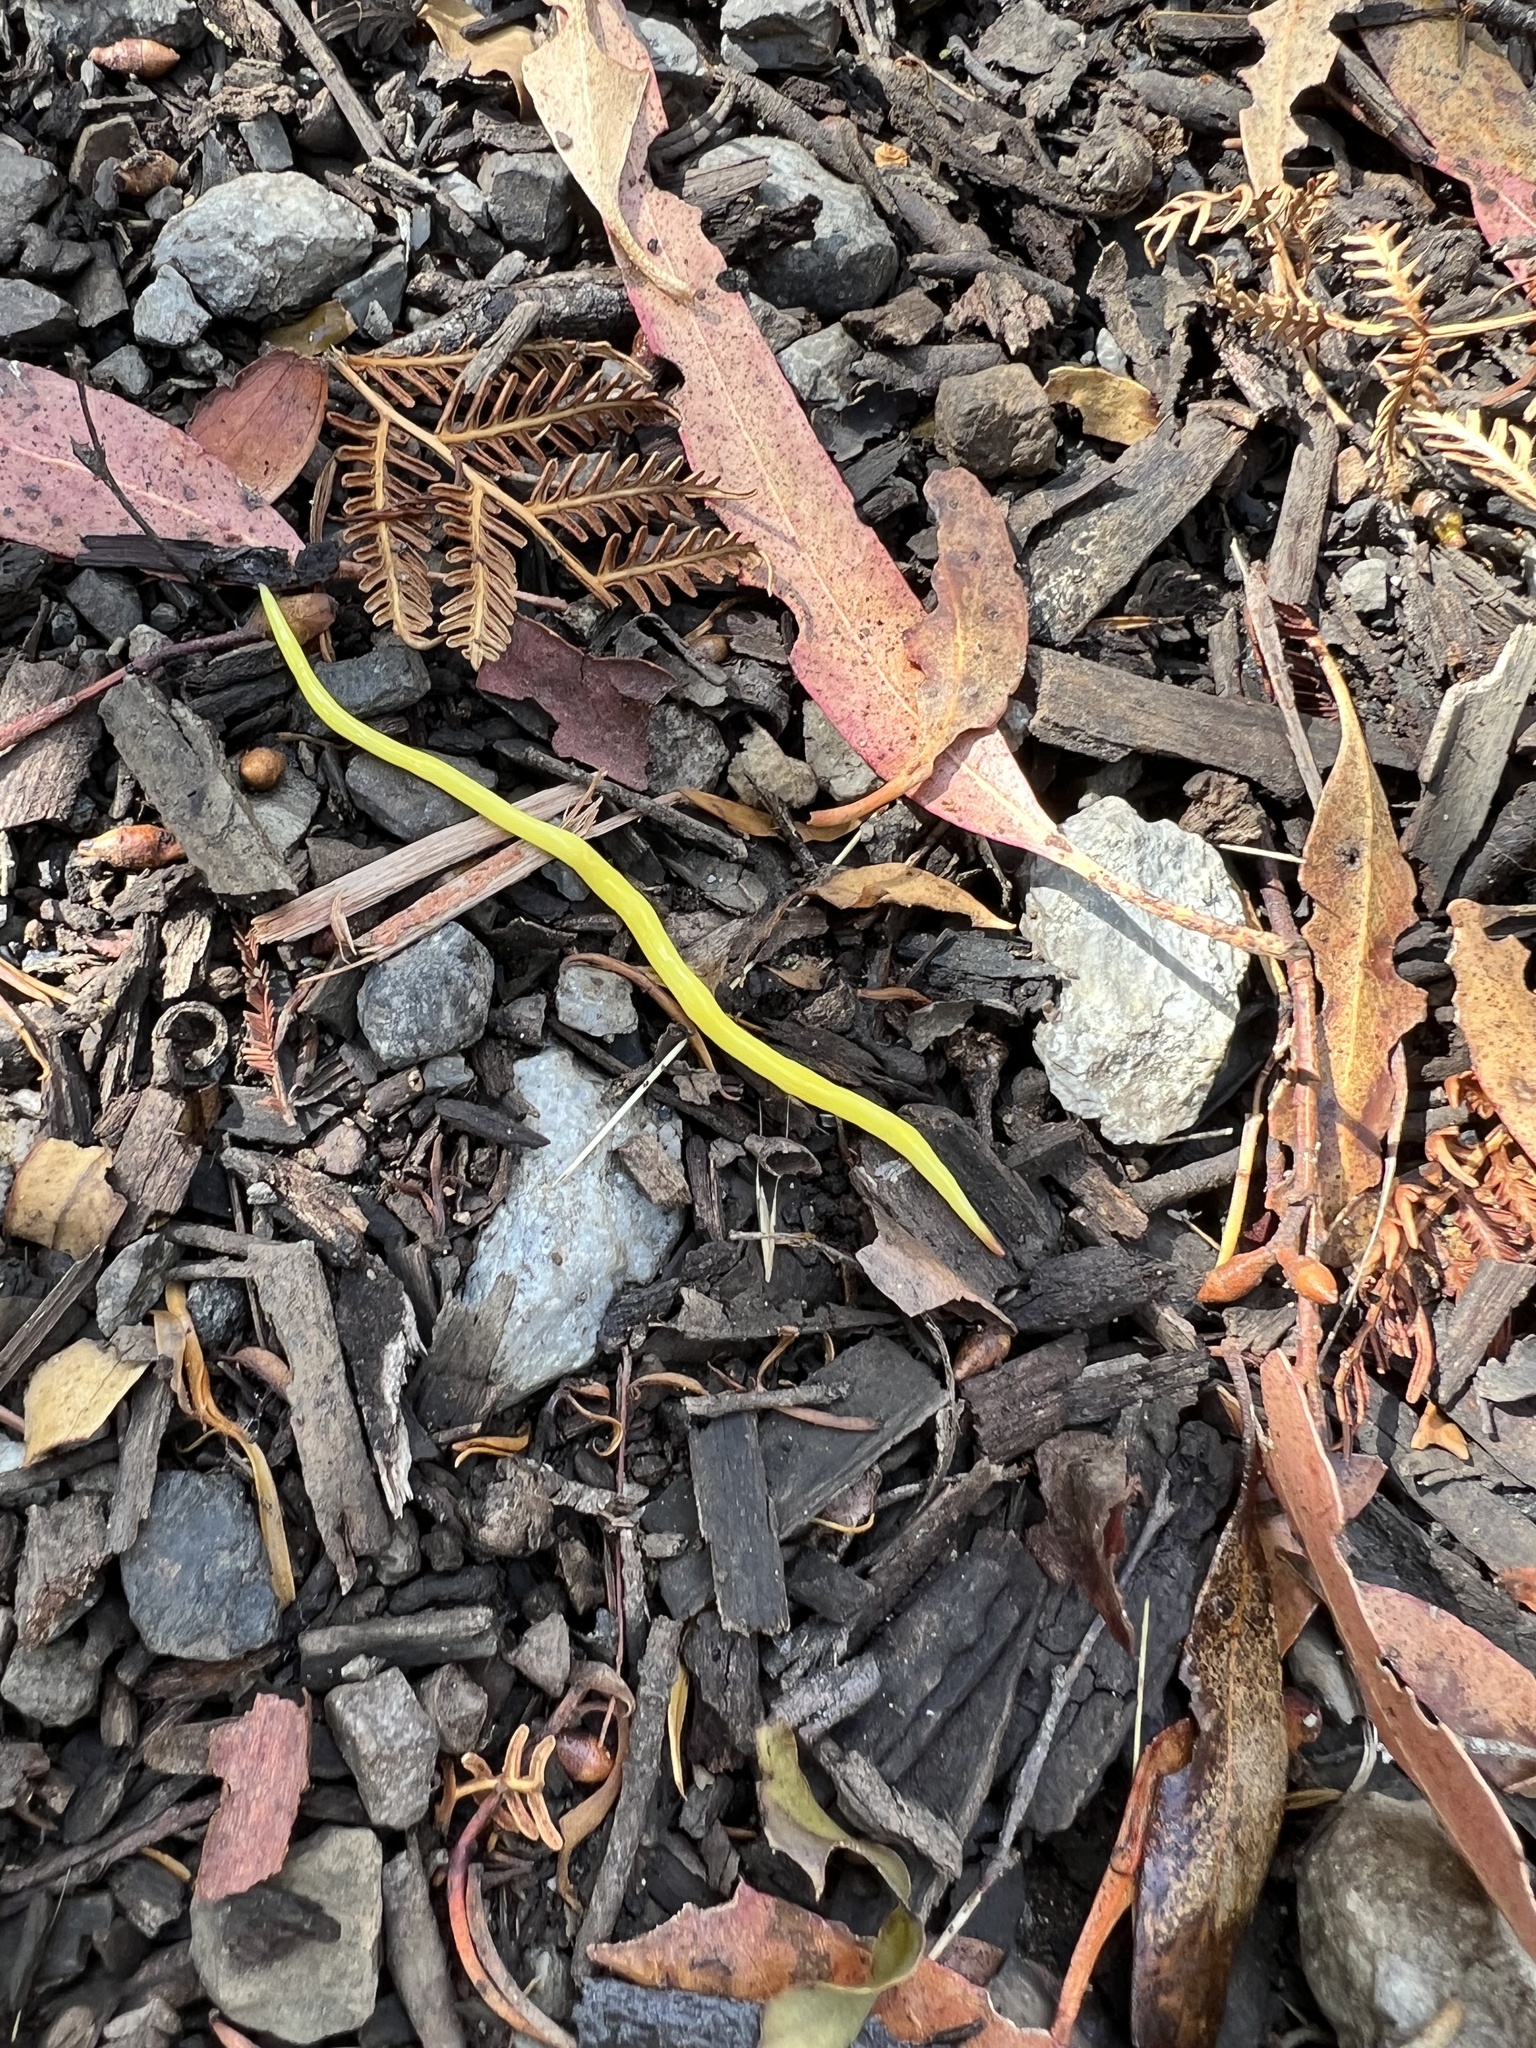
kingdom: Animalia
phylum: Platyhelminthes
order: Tricladida
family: Geoplanidae
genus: Fletchamia
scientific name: Fletchamia sugdeni
